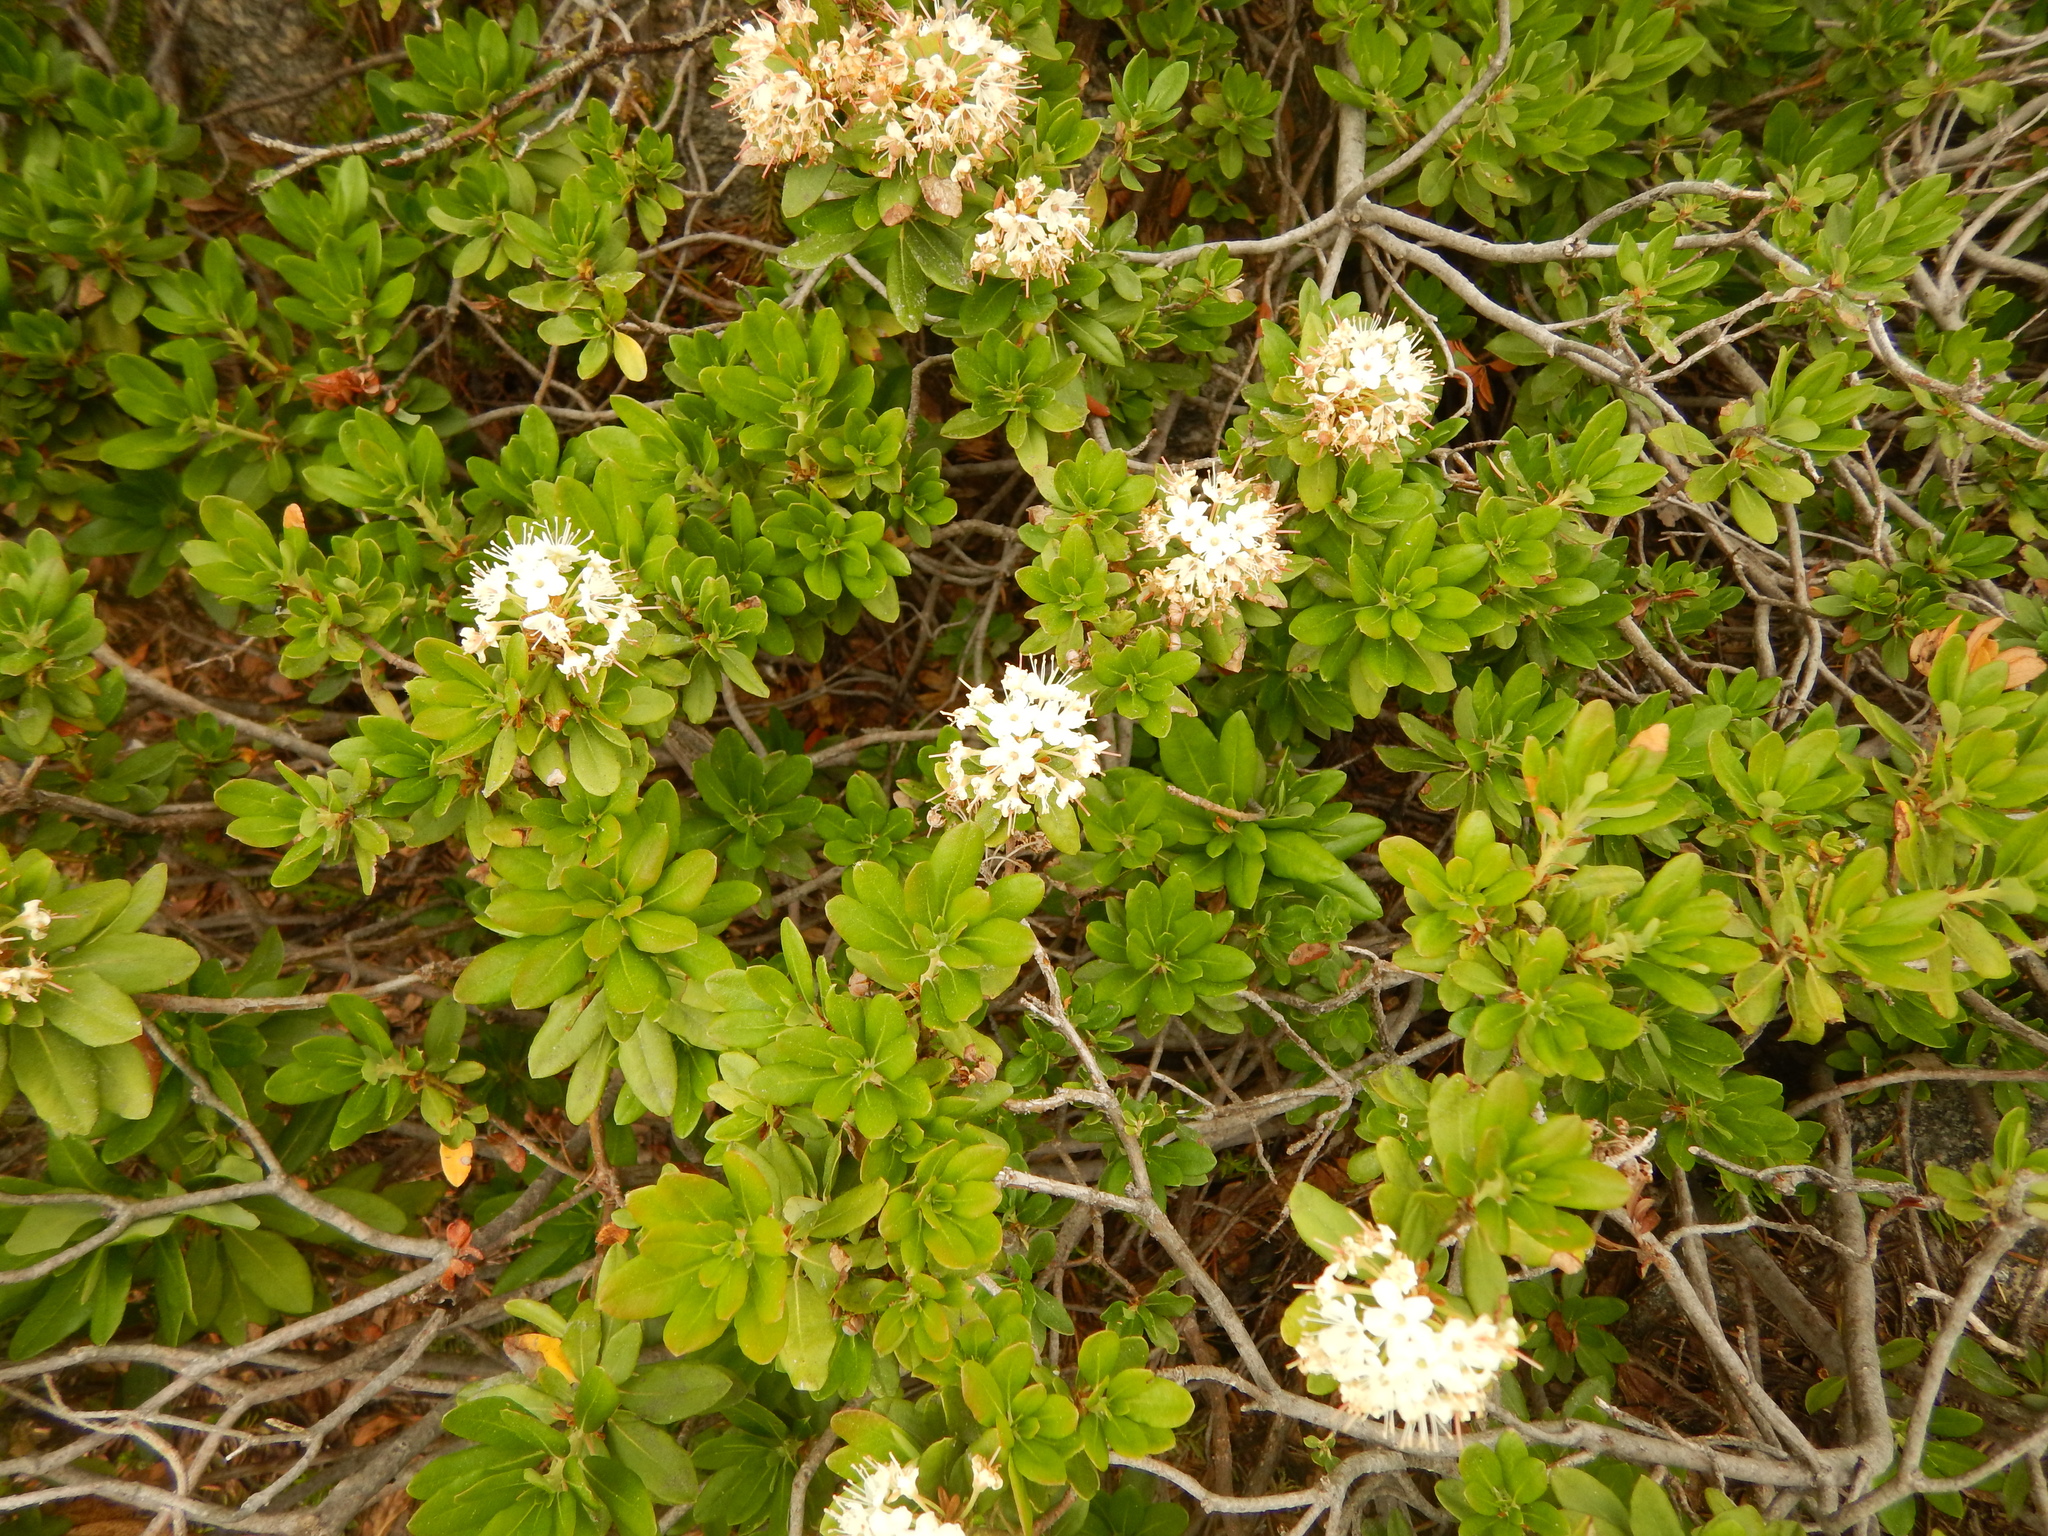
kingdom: Plantae
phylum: Tracheophyta
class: Magnoliopsida
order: Ericales
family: Ericaceae
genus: Rhododendron
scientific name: Rhododendron columbianum
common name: Western labrador tea
